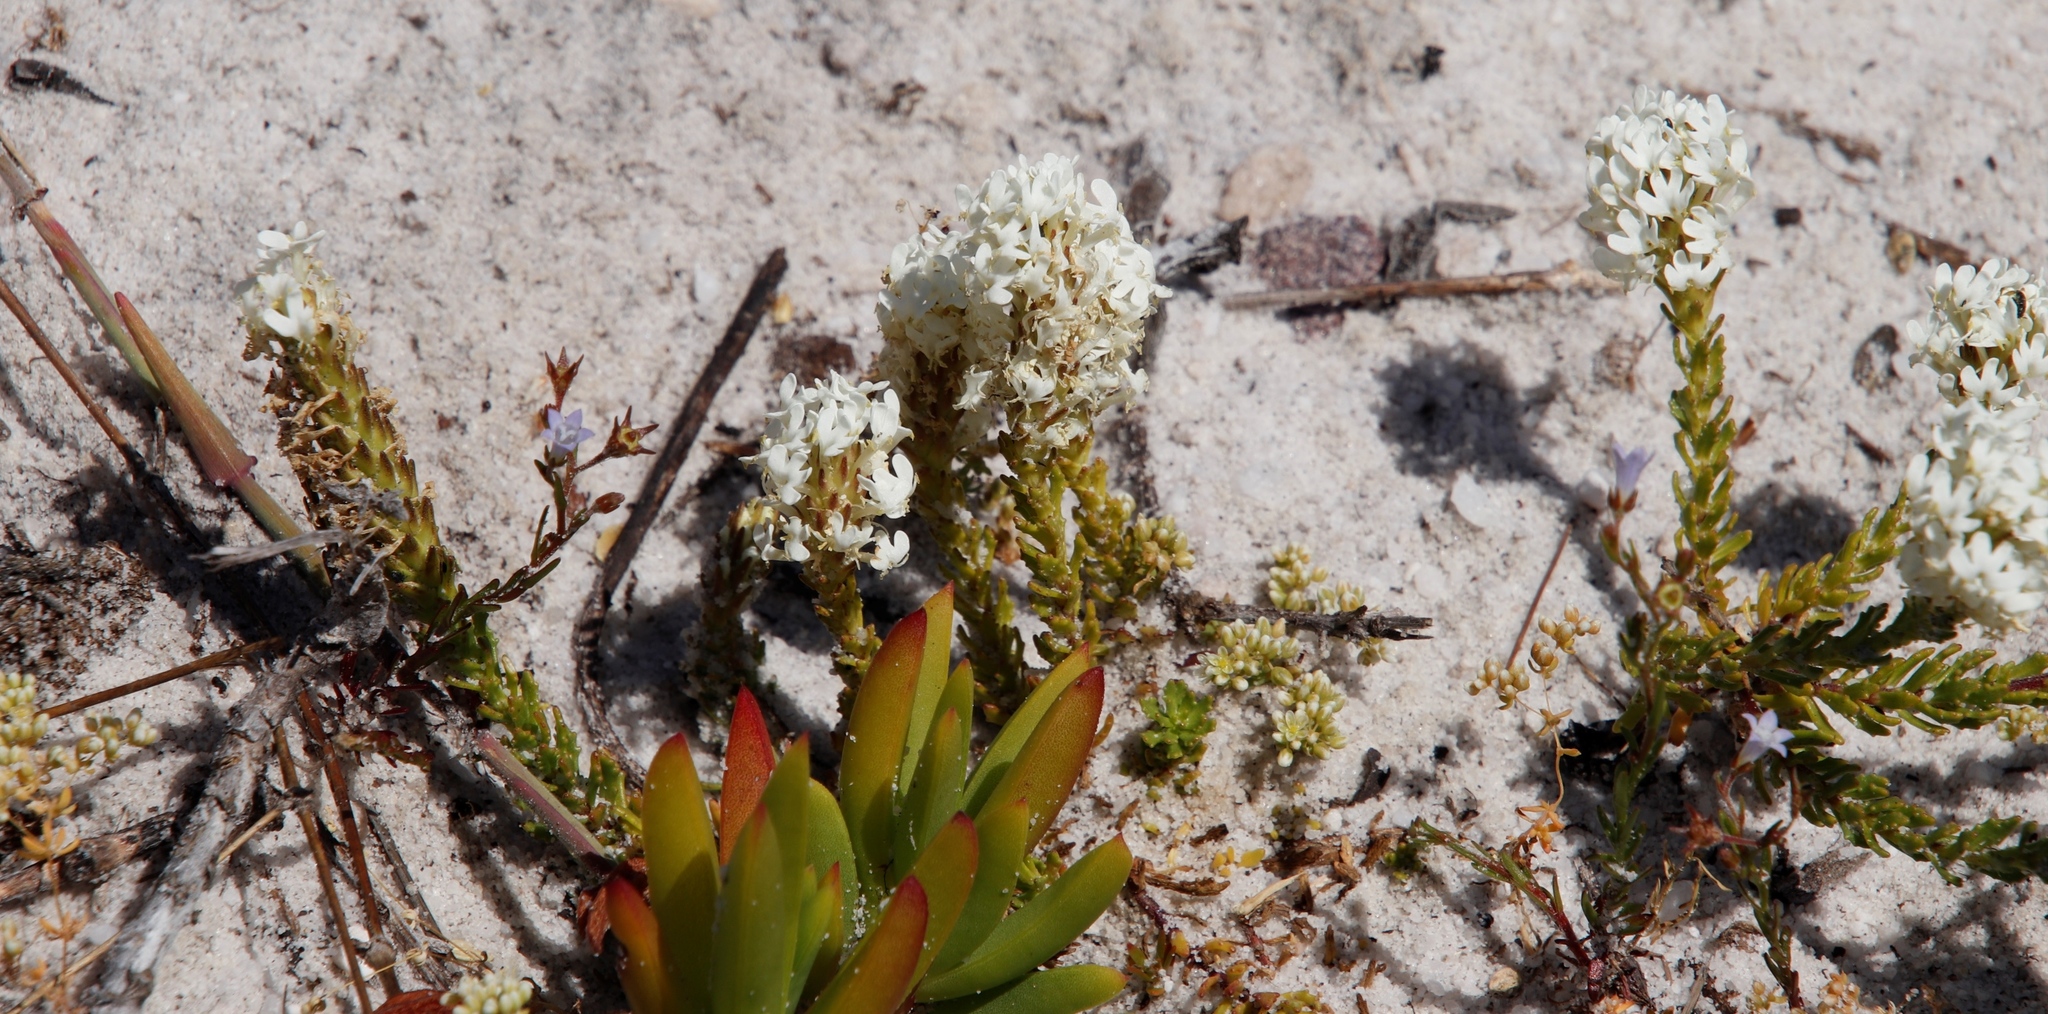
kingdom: Plantae
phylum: Tracheophyta
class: Magnoliopsida
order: Caryophyllales
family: Molluginaceae
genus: Adenogramma
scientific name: Adenogramma glomerata
